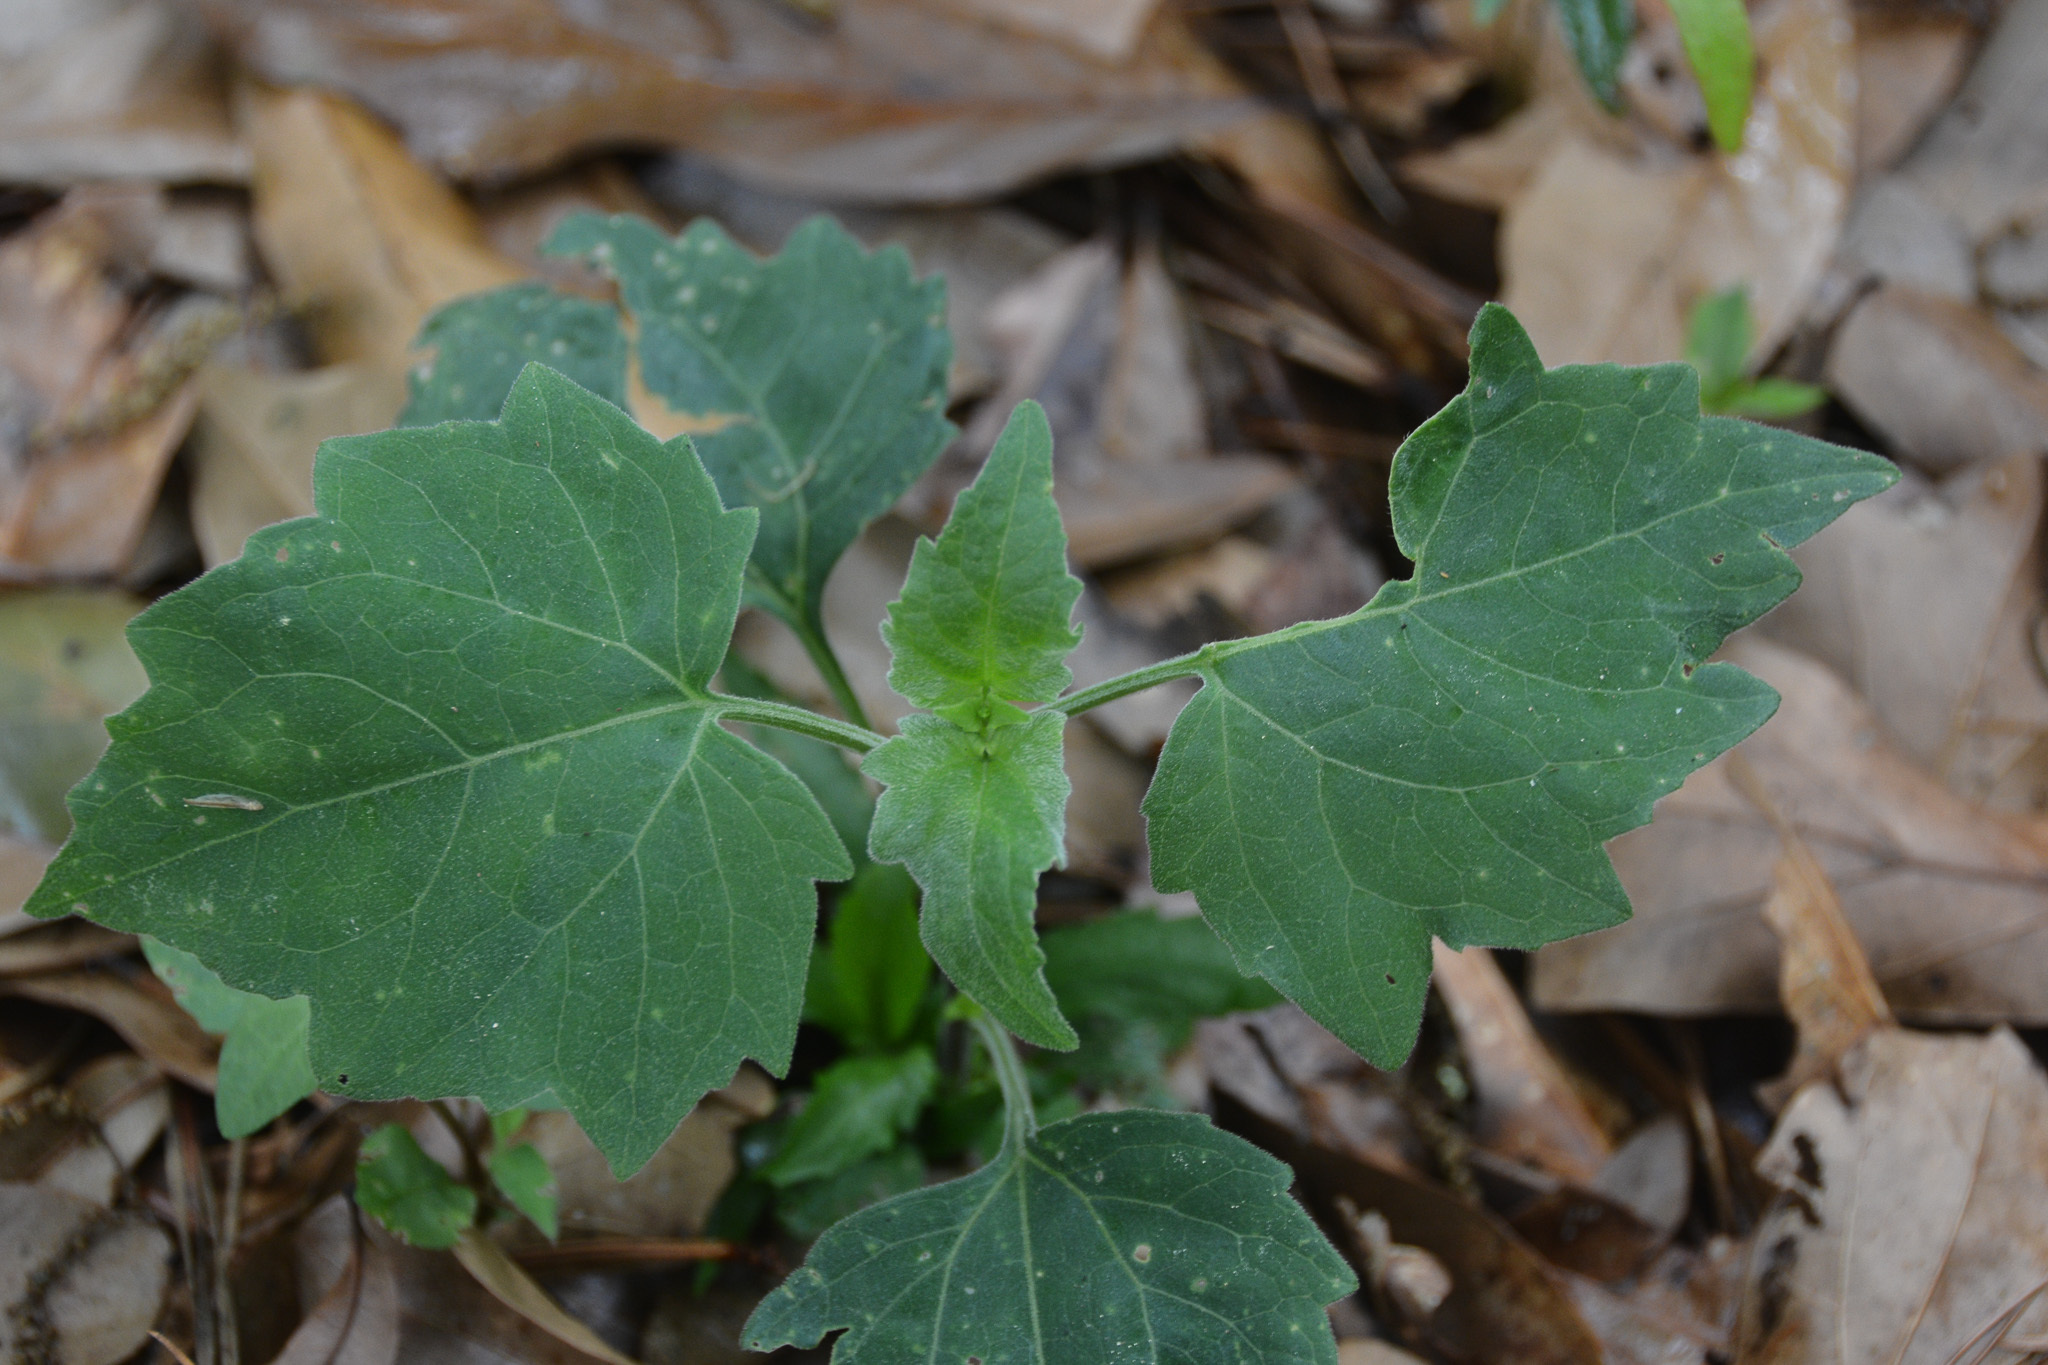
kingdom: Plantae
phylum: Tracheophyta
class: Magnoliopsida
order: Asterales
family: Asteraceae
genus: Mikania
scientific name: Mikania cordifolia
